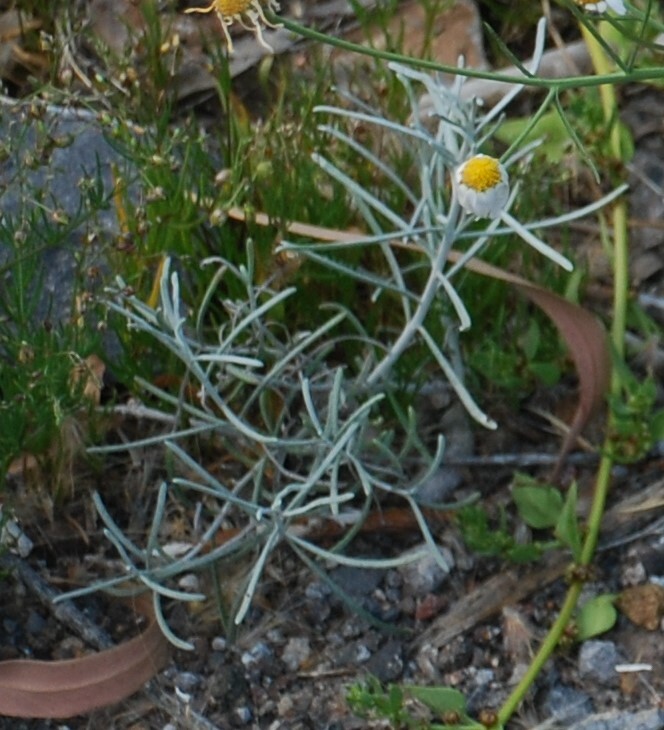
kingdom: Plantae
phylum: Tracheophyta
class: Magnoliopsida
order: Asterales
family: Asteraceae
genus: Phagnalon
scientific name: Phagnalon saxatile
